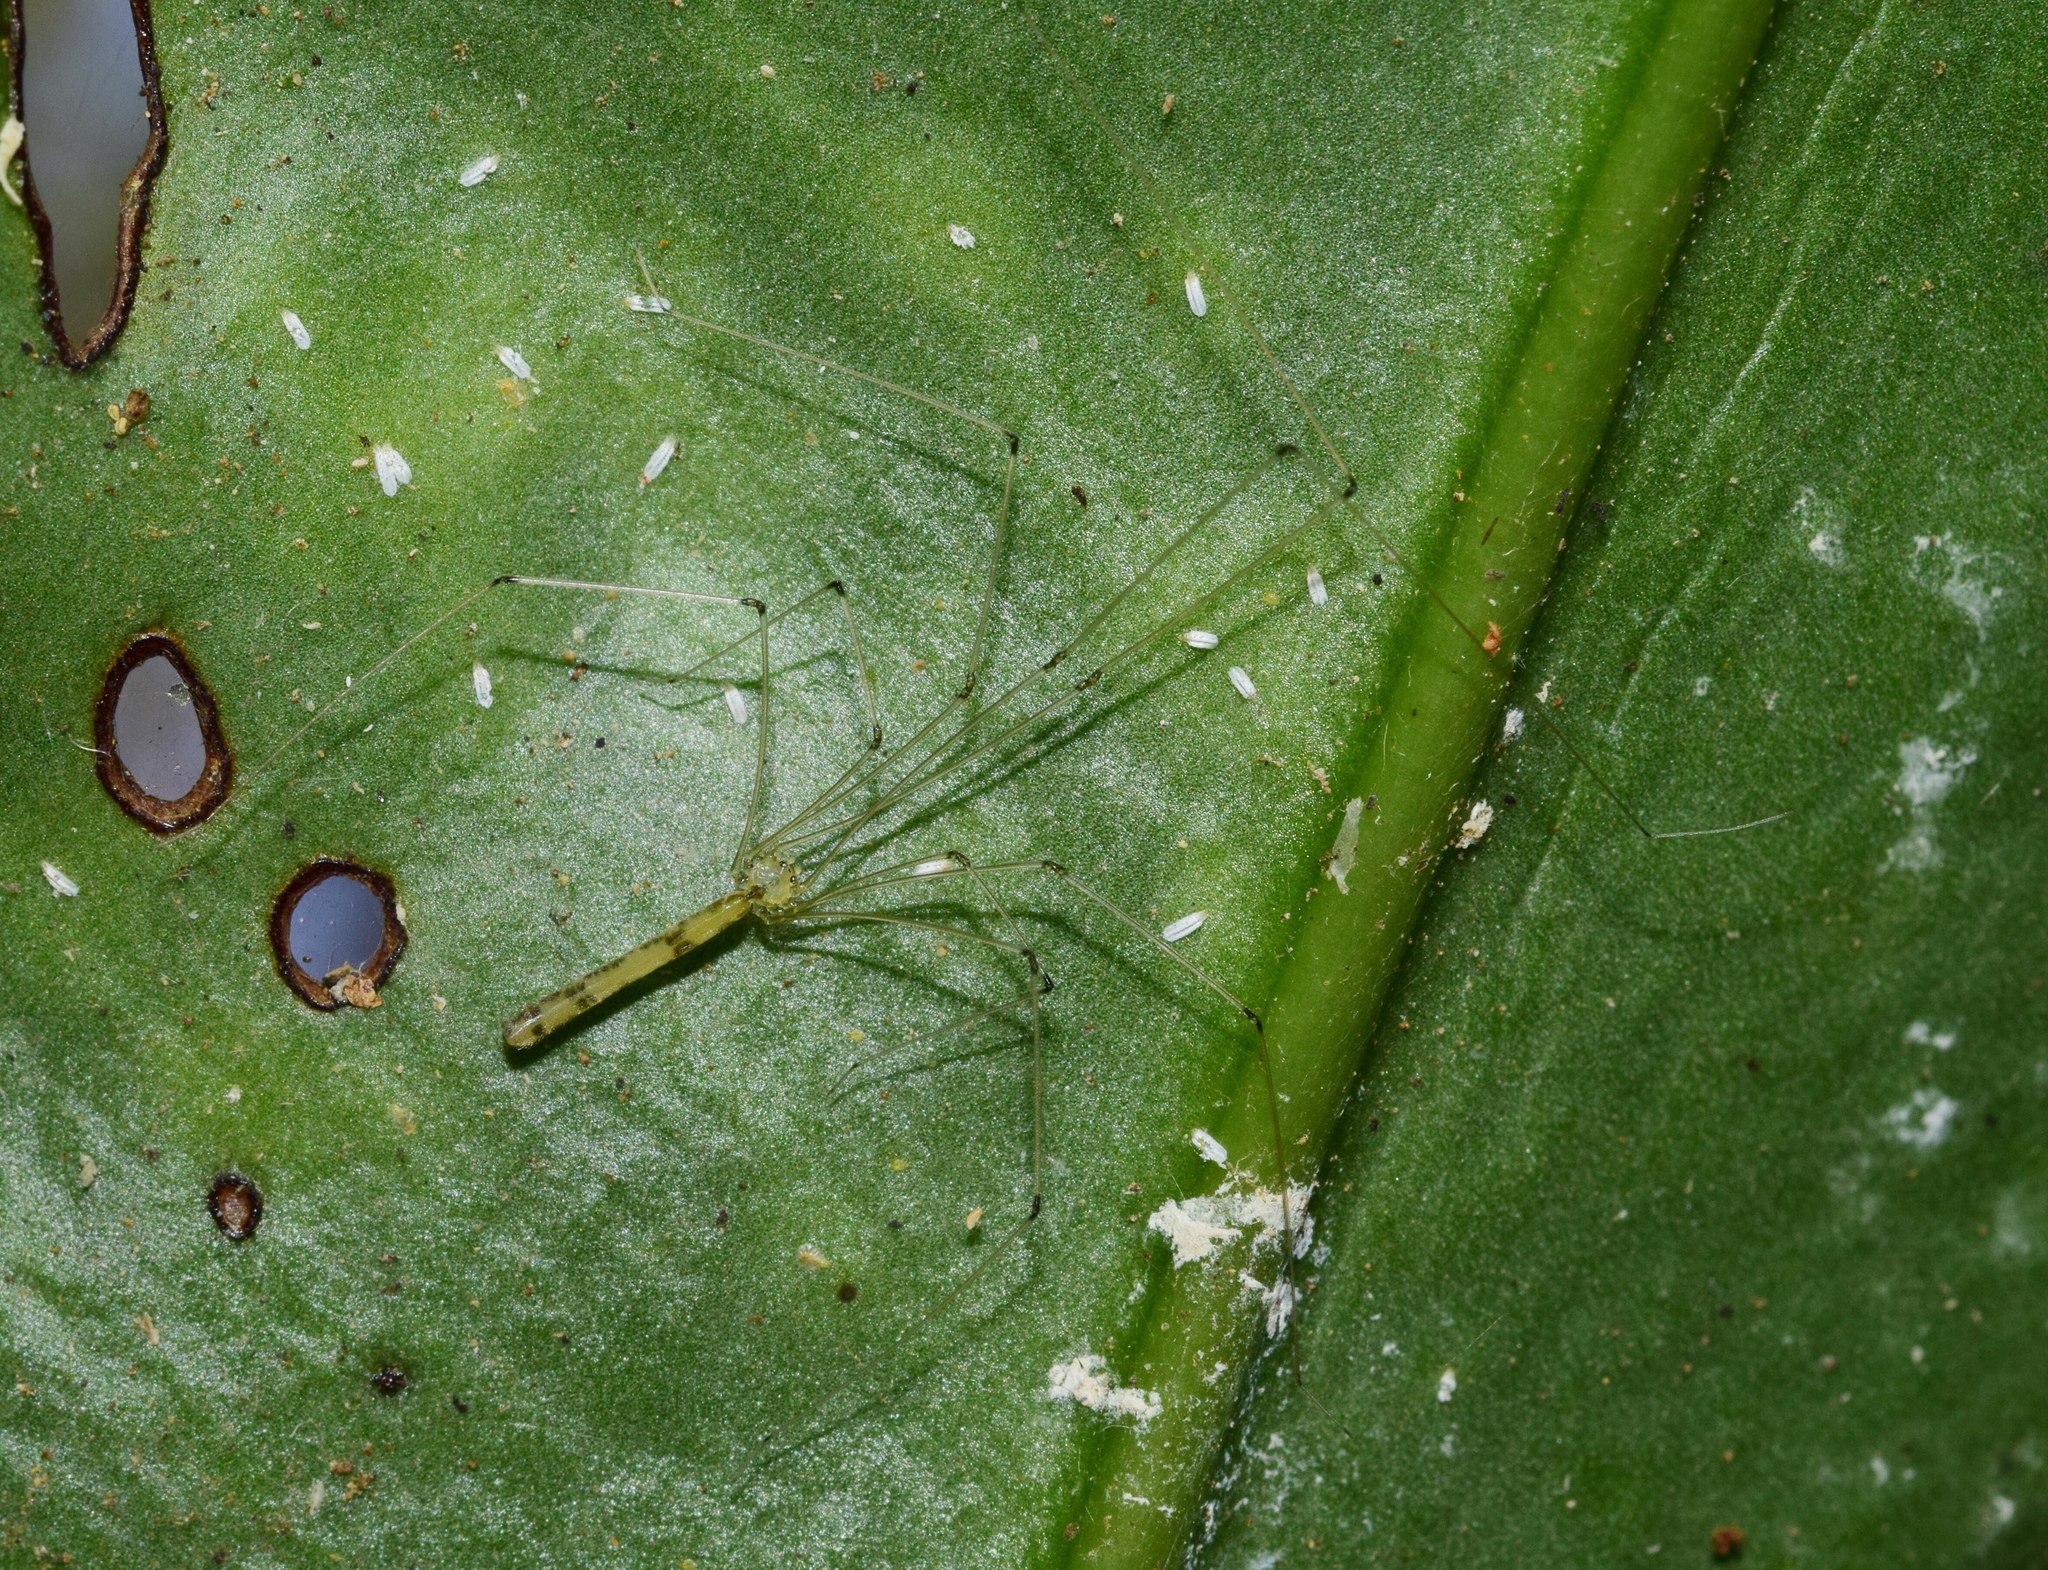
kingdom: Animalia
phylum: Arthropoda
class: Arachnida
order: Araneae
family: Pholcidae
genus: Leptopholcus
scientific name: Leptopholcus gracilis
